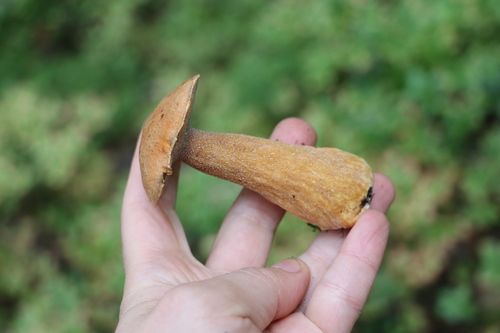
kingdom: Fungi
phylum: Basidiomycota
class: Agaricomycetes
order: Boletales
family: Suillaceae
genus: Suillus
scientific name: Suillus variegatus
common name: Velvet bolete
